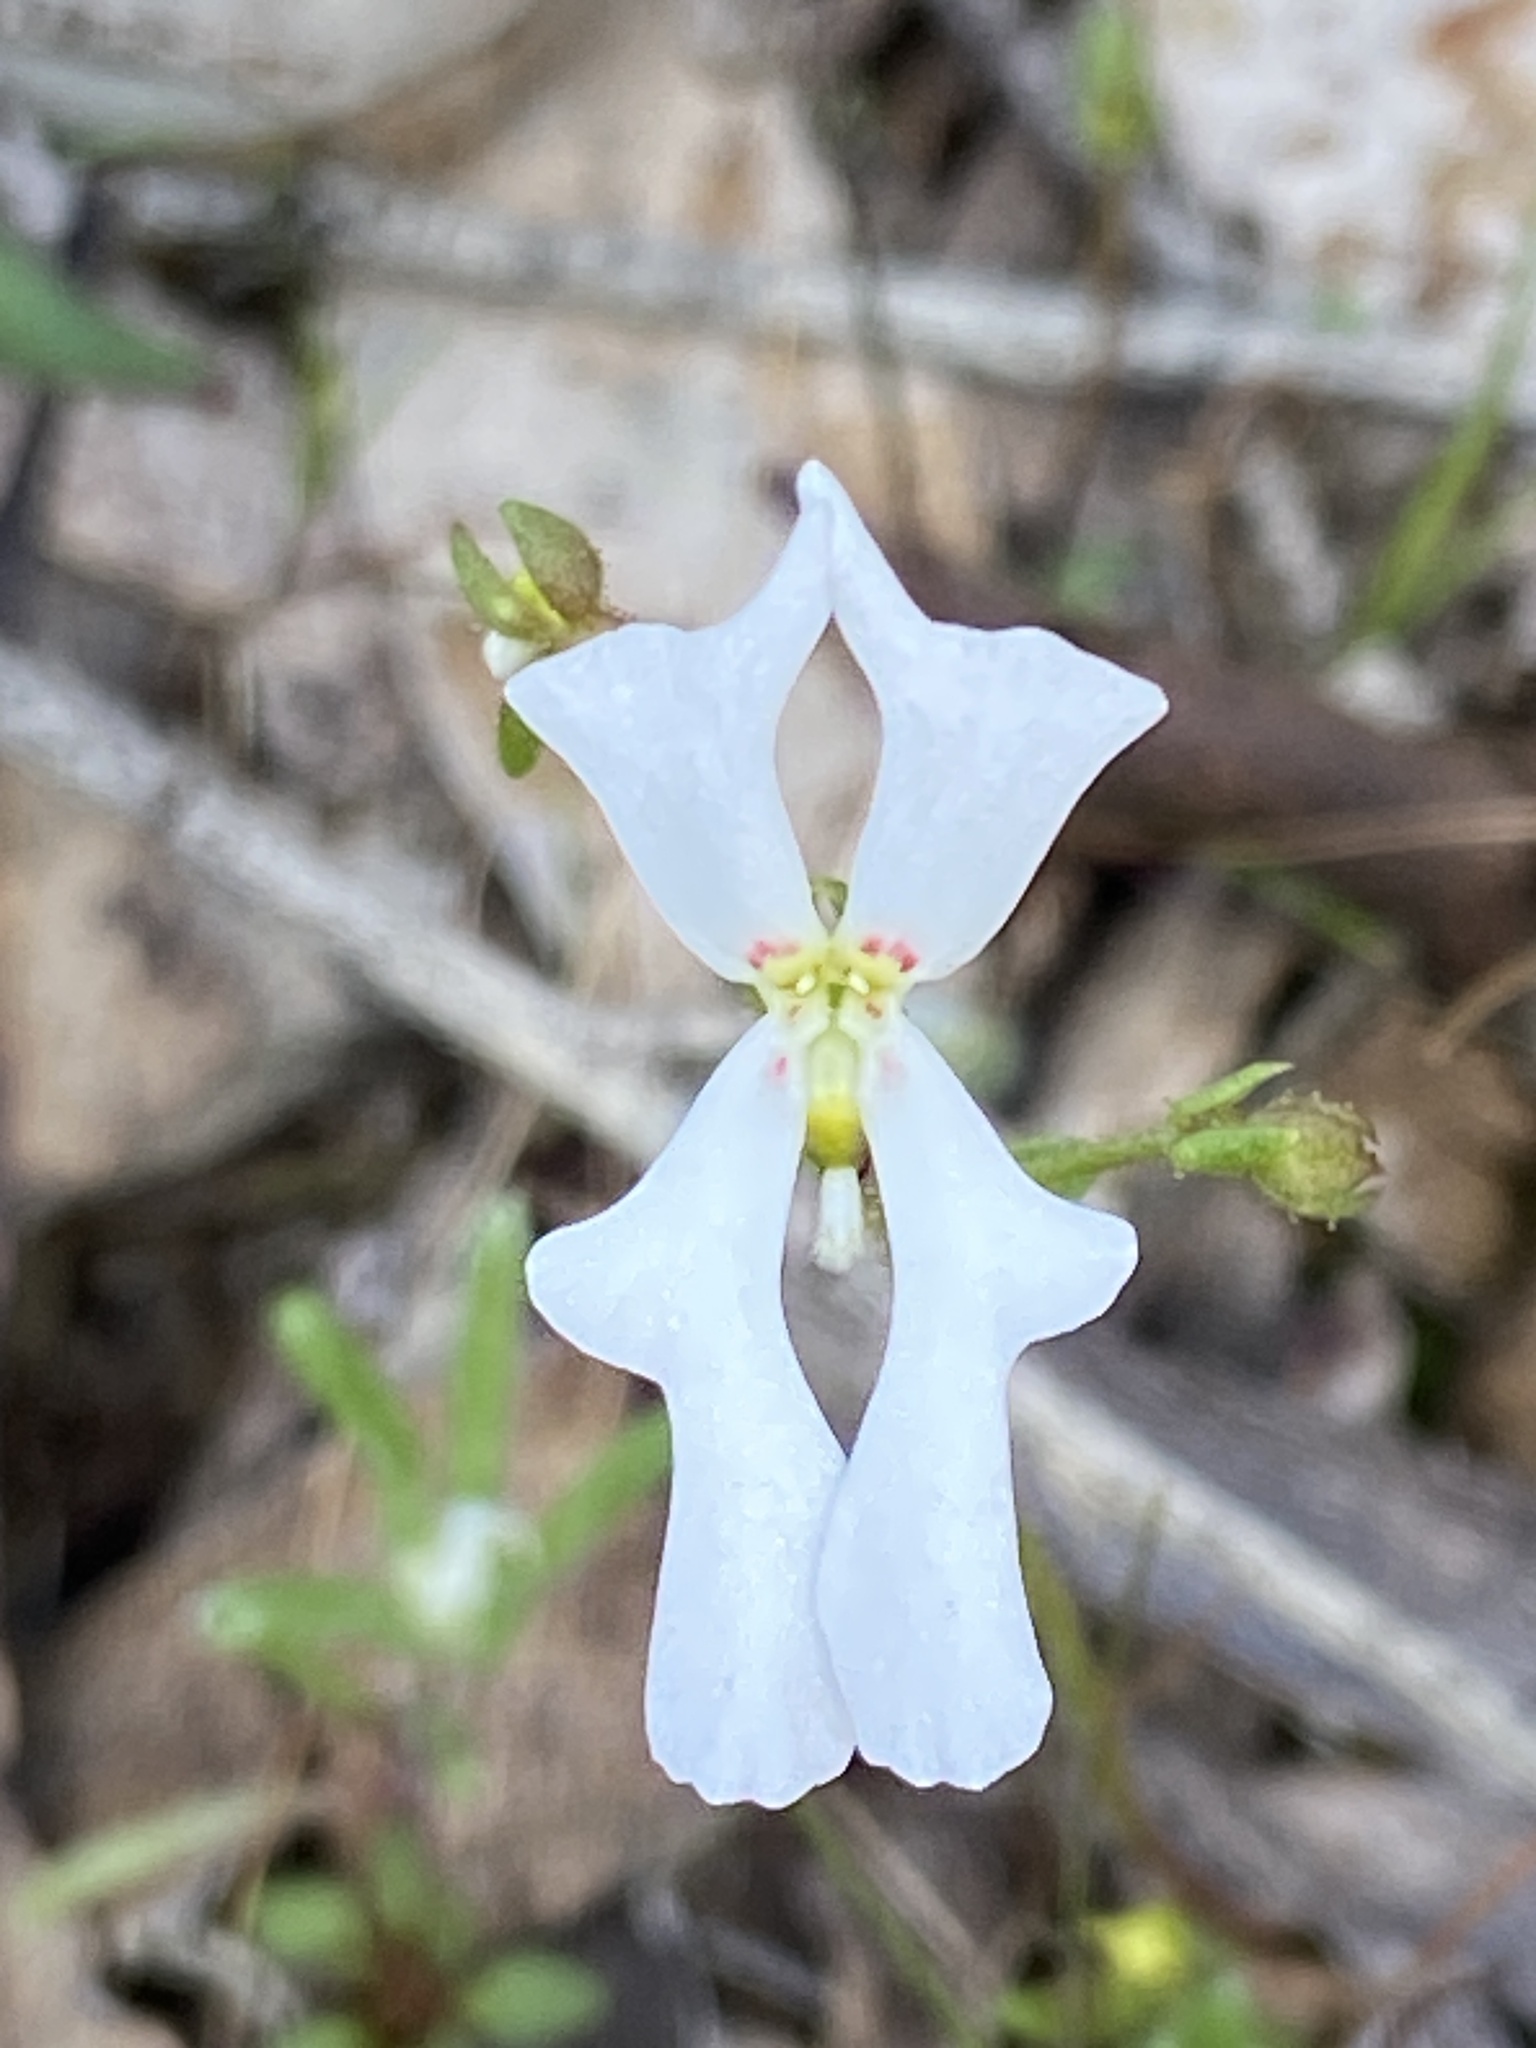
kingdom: Plantae
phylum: Tracheophyta
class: Magnoliopsida
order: Asterales
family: Stylidiaceae
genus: Stylidium
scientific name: Stylidium androsaceum
